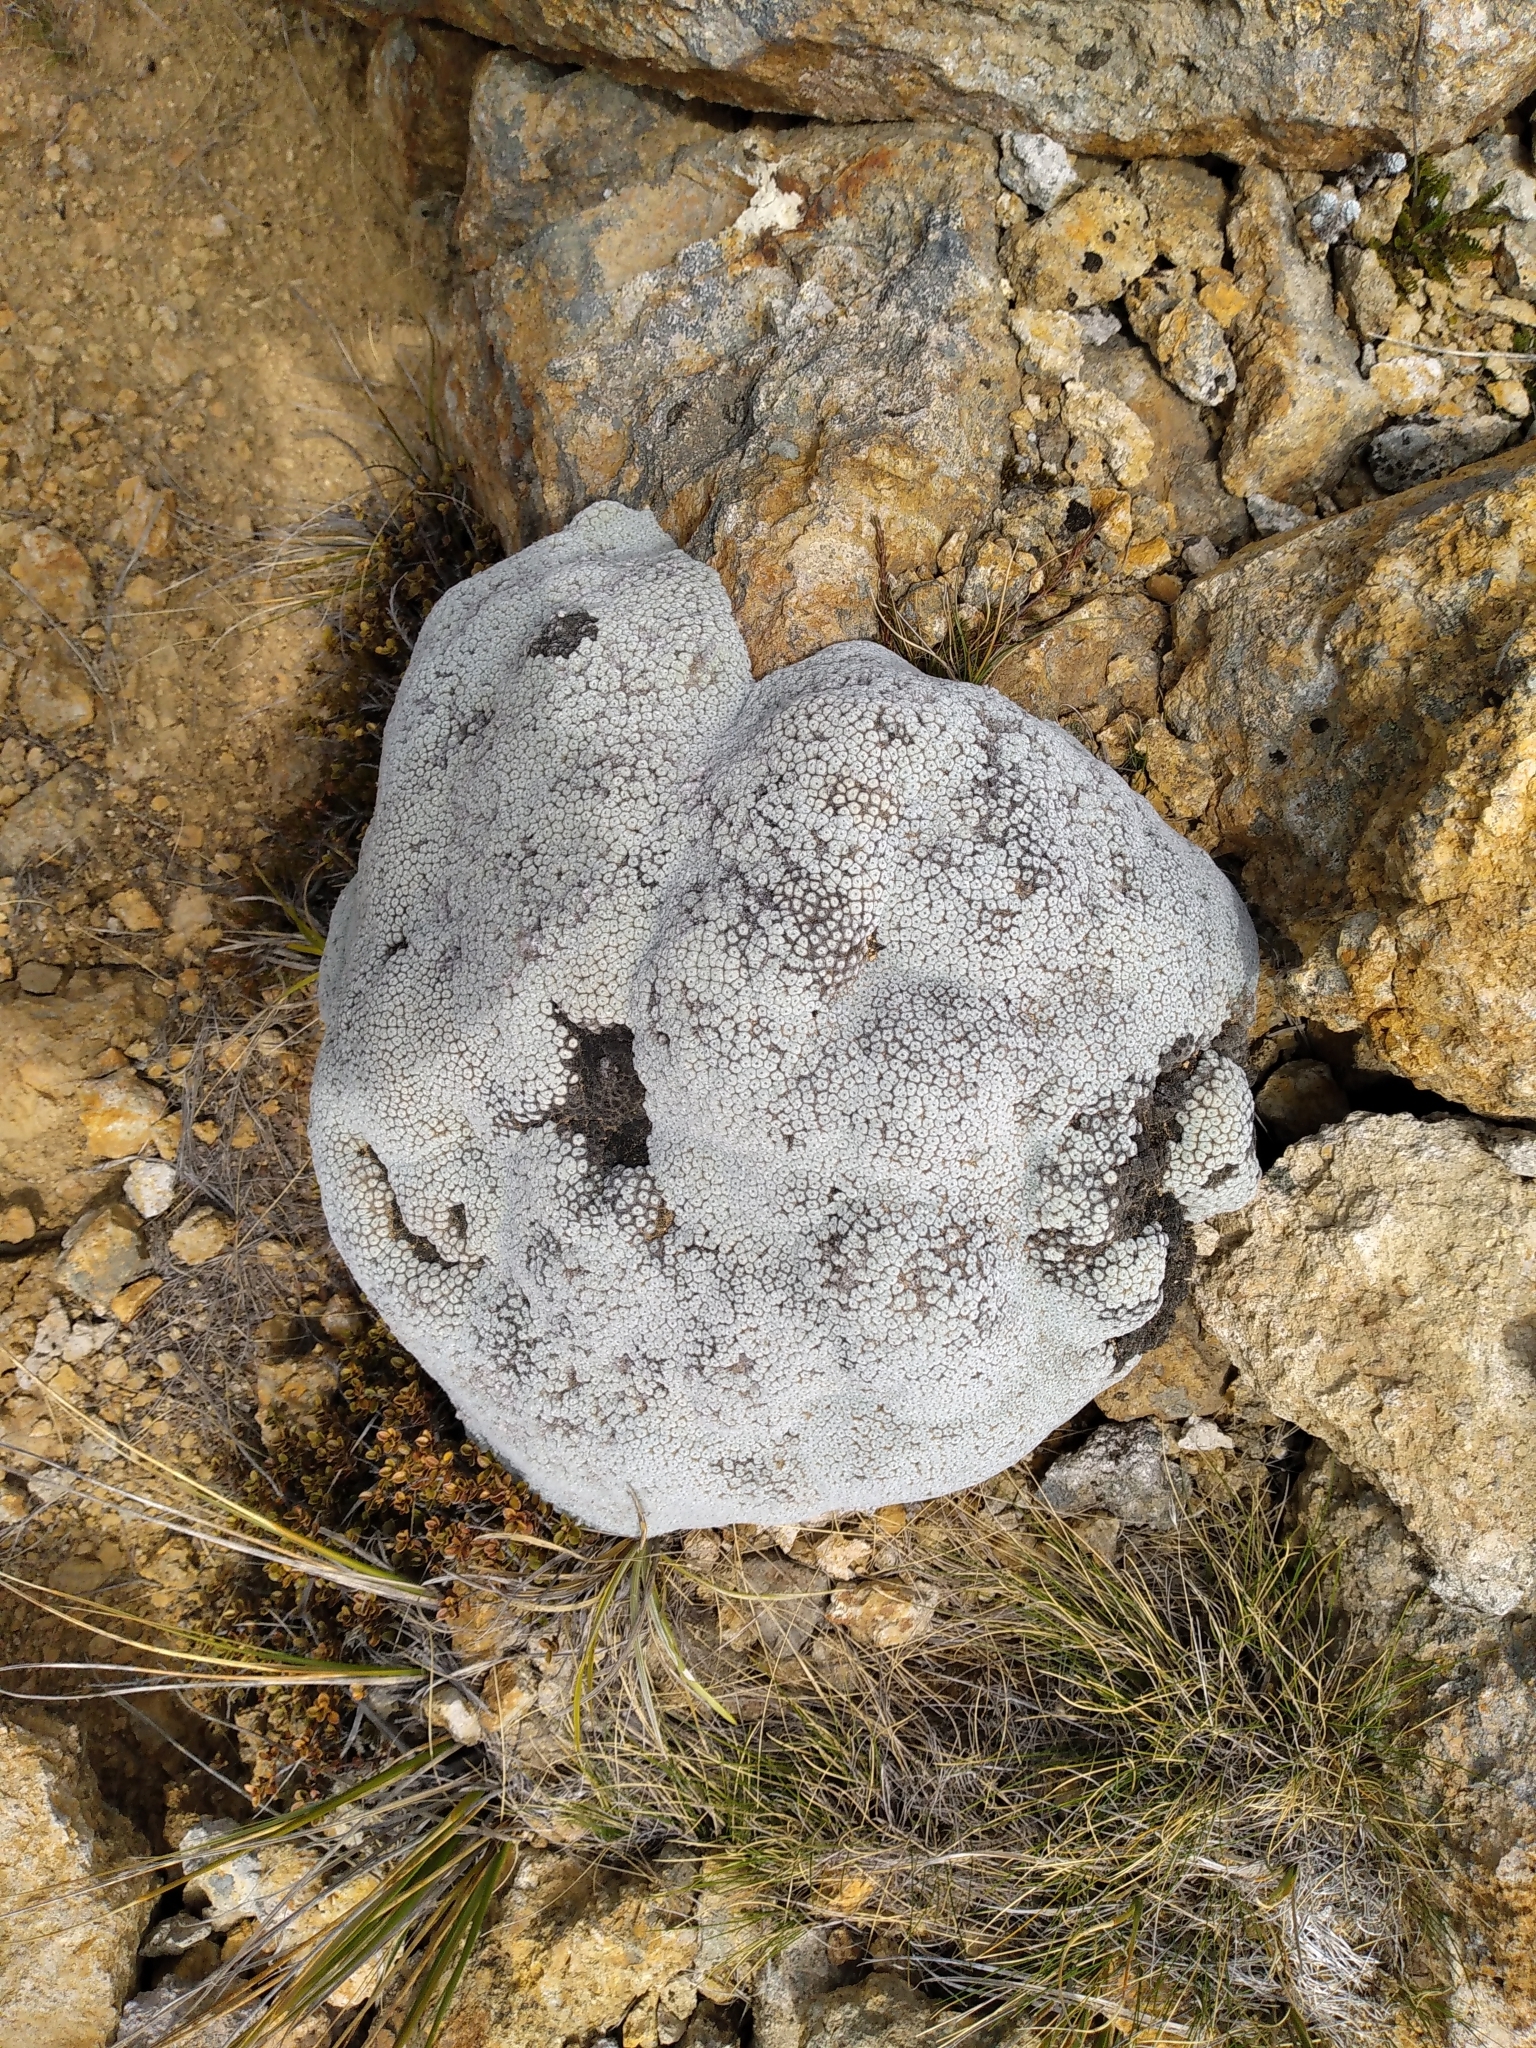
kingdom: Plantae
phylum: Tracheophyta
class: Magnoliopsida
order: Asterales
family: Asteraceae
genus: Raoulia
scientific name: Raoulia eximia
